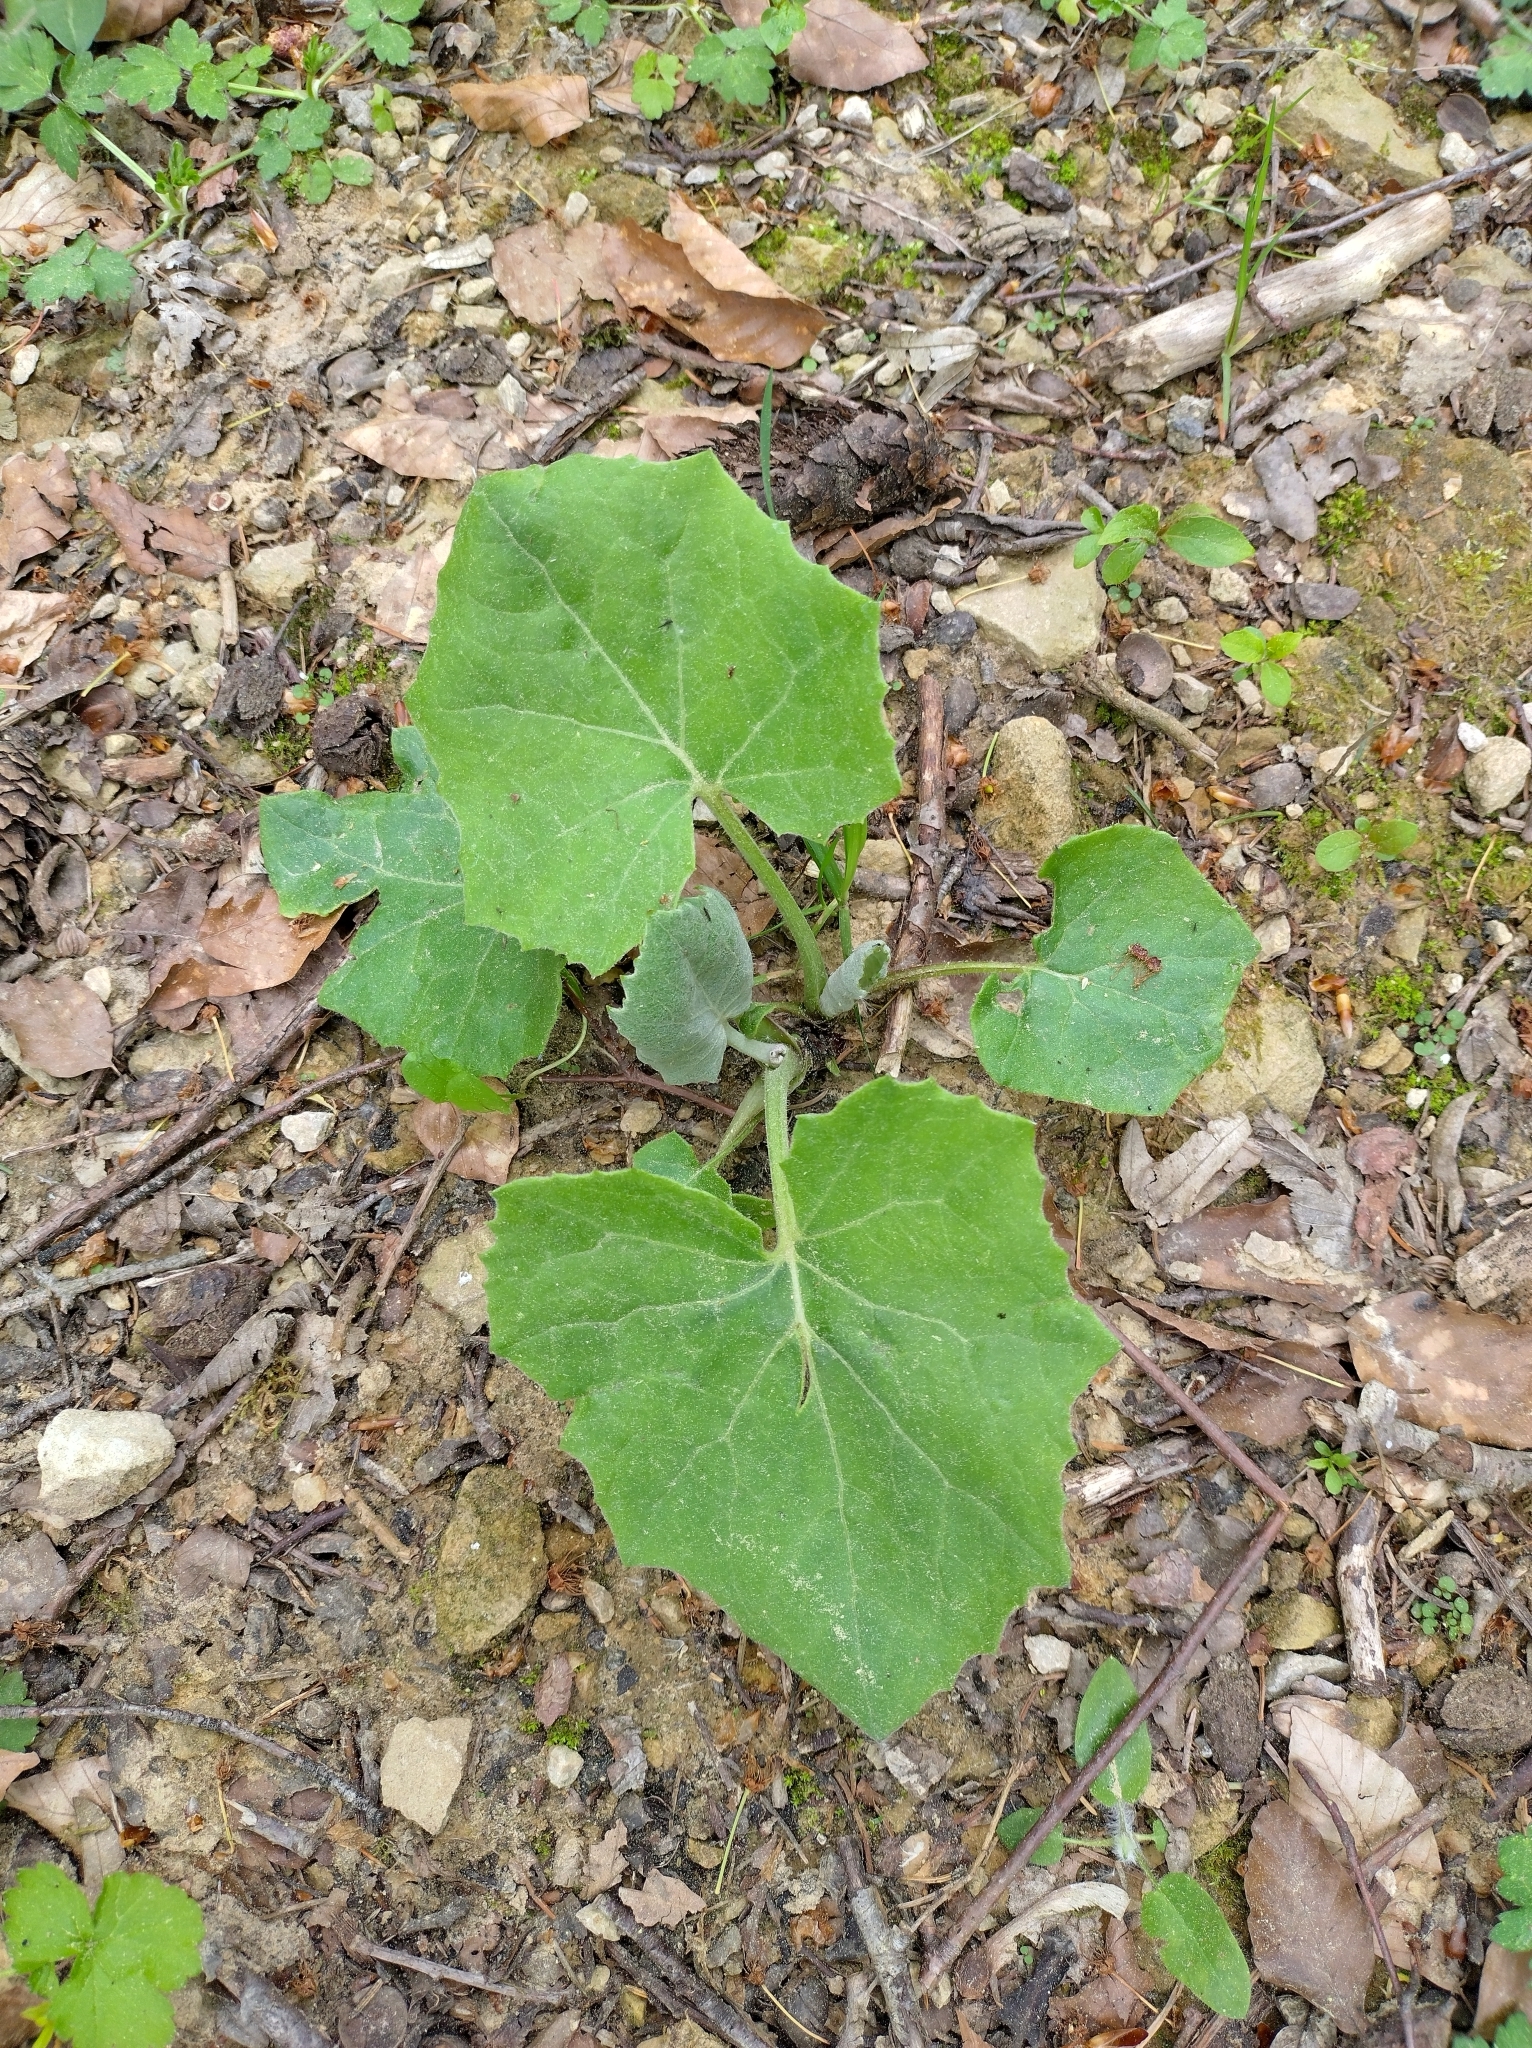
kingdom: Plantae
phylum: Tracheophyta
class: Magnoliopsida
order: Asterales
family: Asteraceae
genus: Tussilago
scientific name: Tussilago farfara
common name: Coltsfoot
